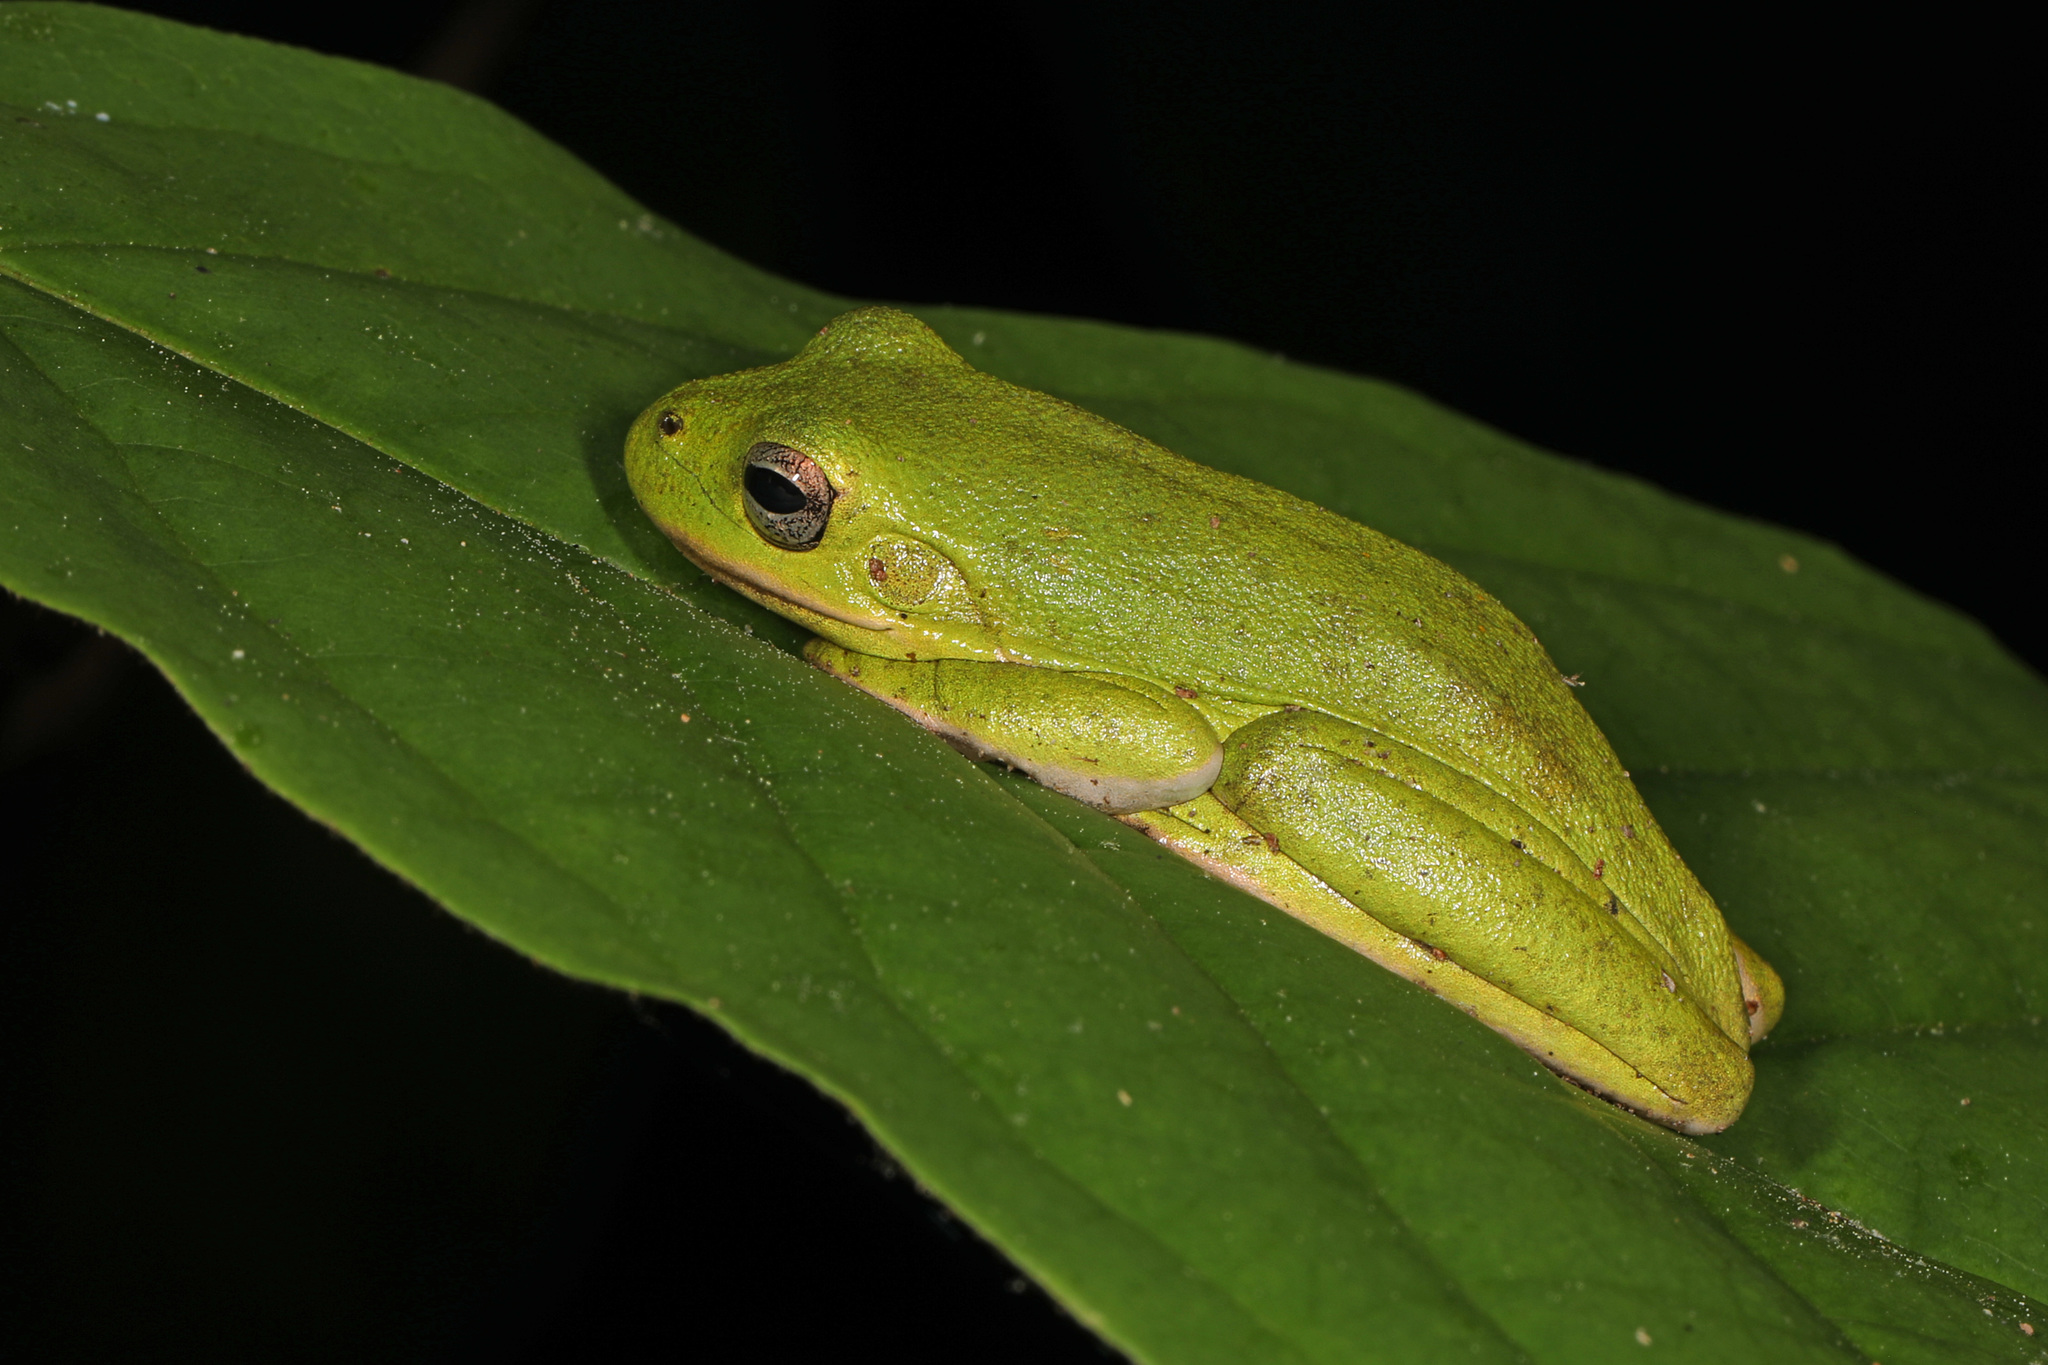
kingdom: Animalia
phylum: Chordata
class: Amphibia
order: Anura
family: Hylidae
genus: Dryophytes
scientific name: Dryophytes cinereus
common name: Green treefrog
